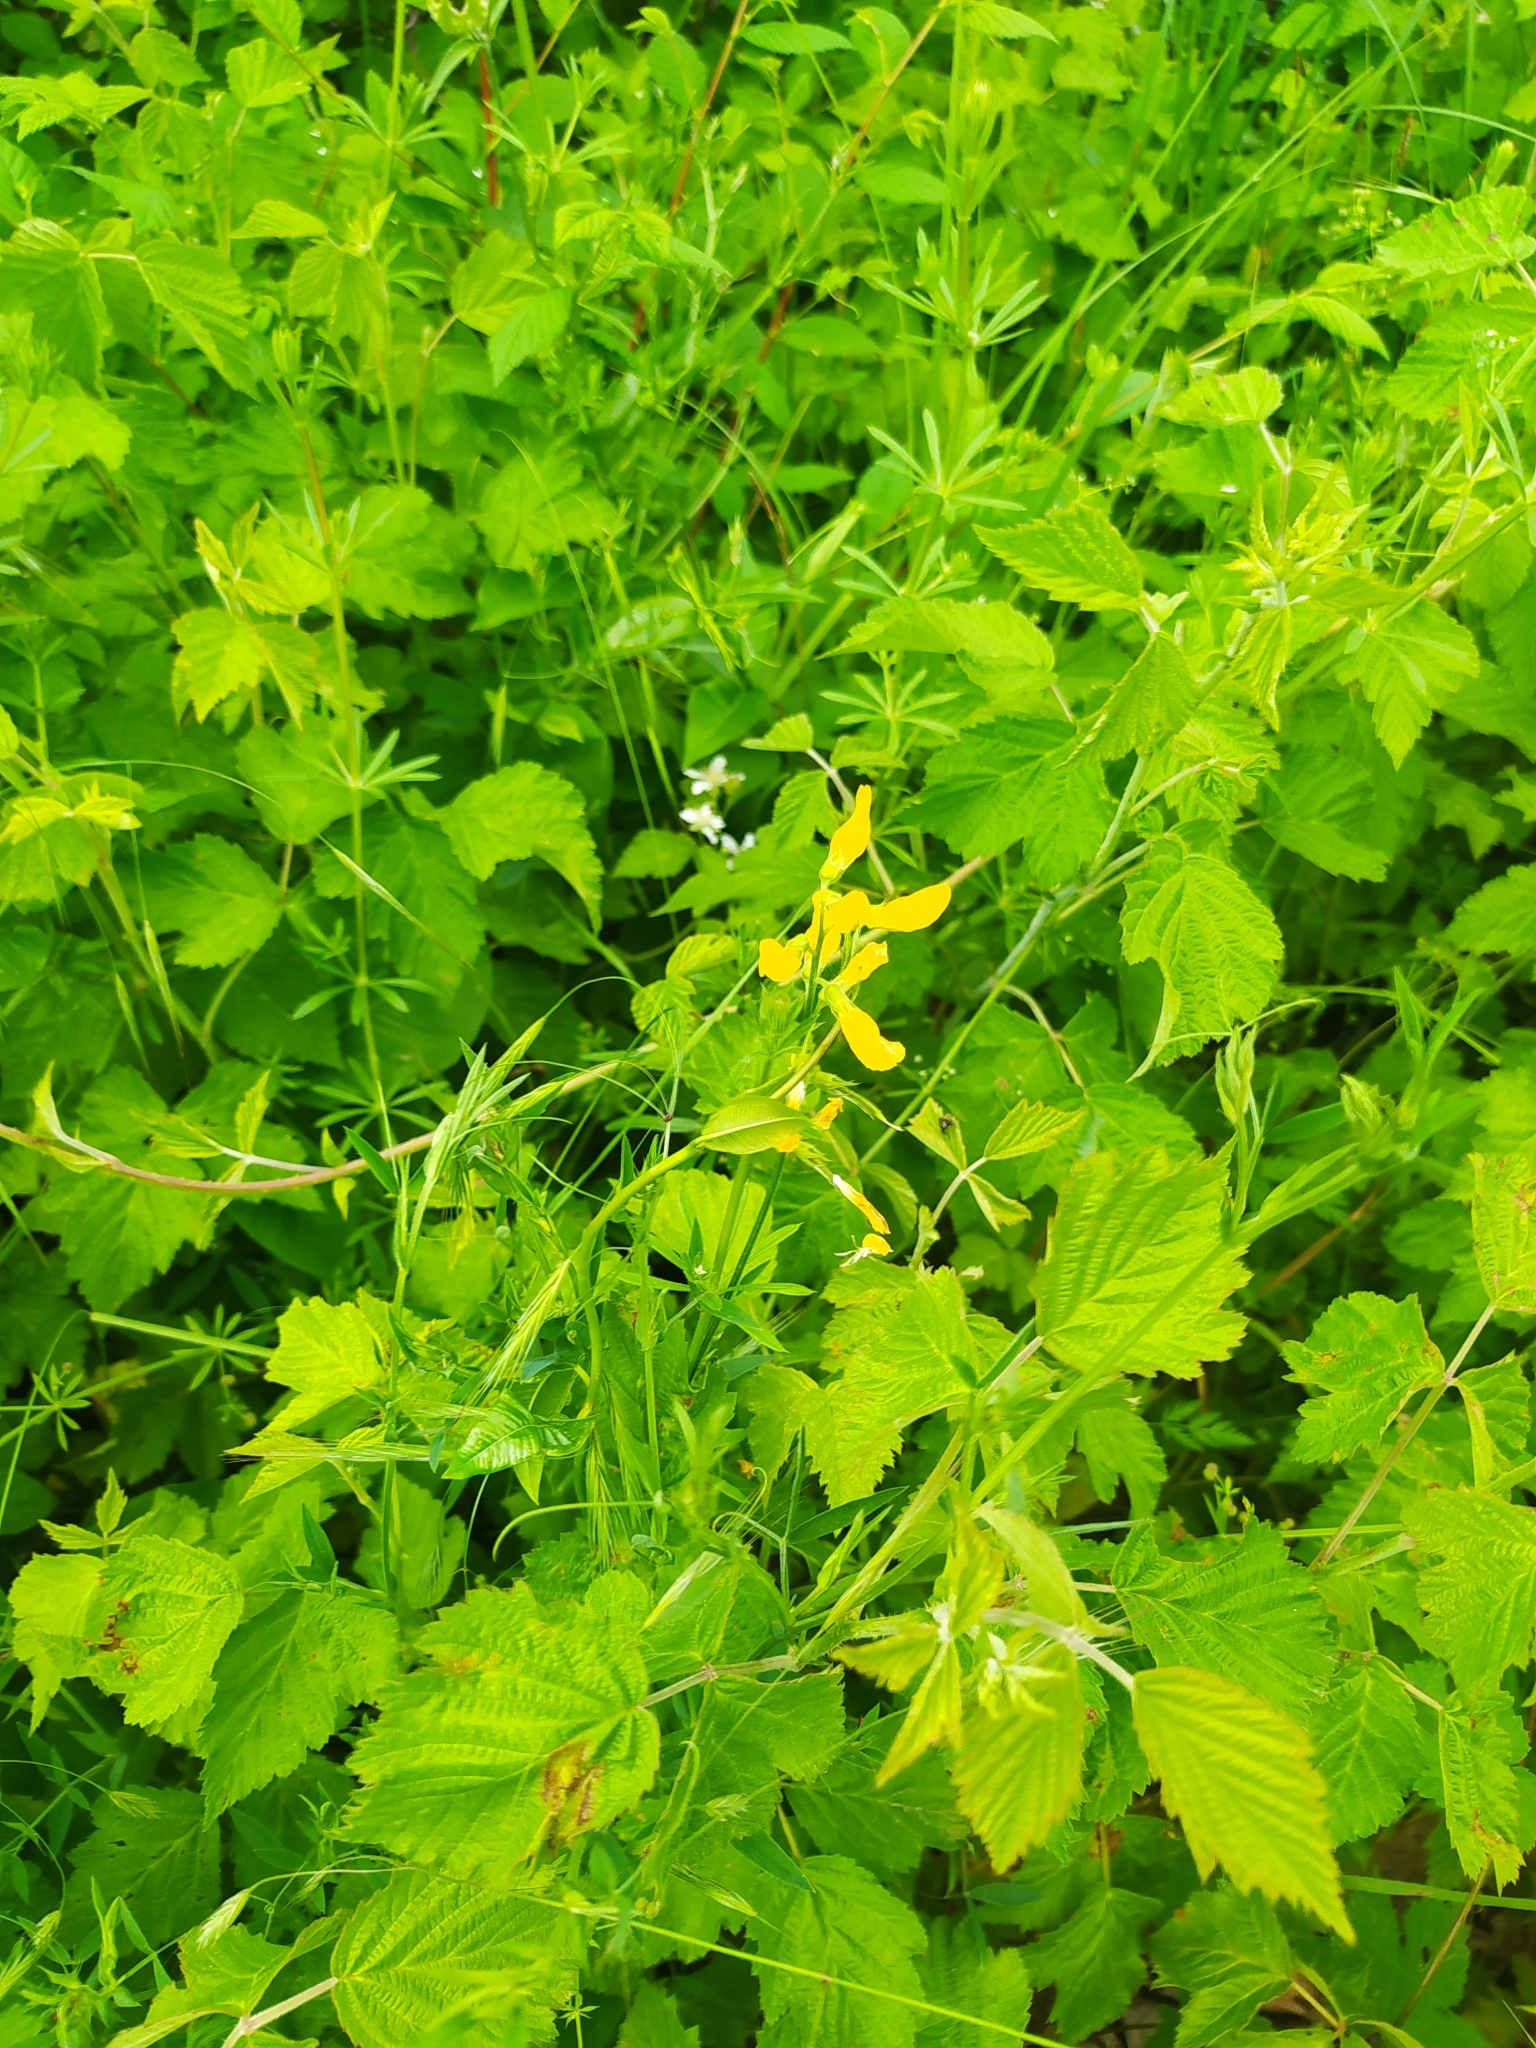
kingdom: Plantae
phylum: Tracheophyta
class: Magnoliopsida
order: Fabales
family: Fabaceae
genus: Lathyrus
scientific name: Lathyrus pratensis
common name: Meadow vetchling
